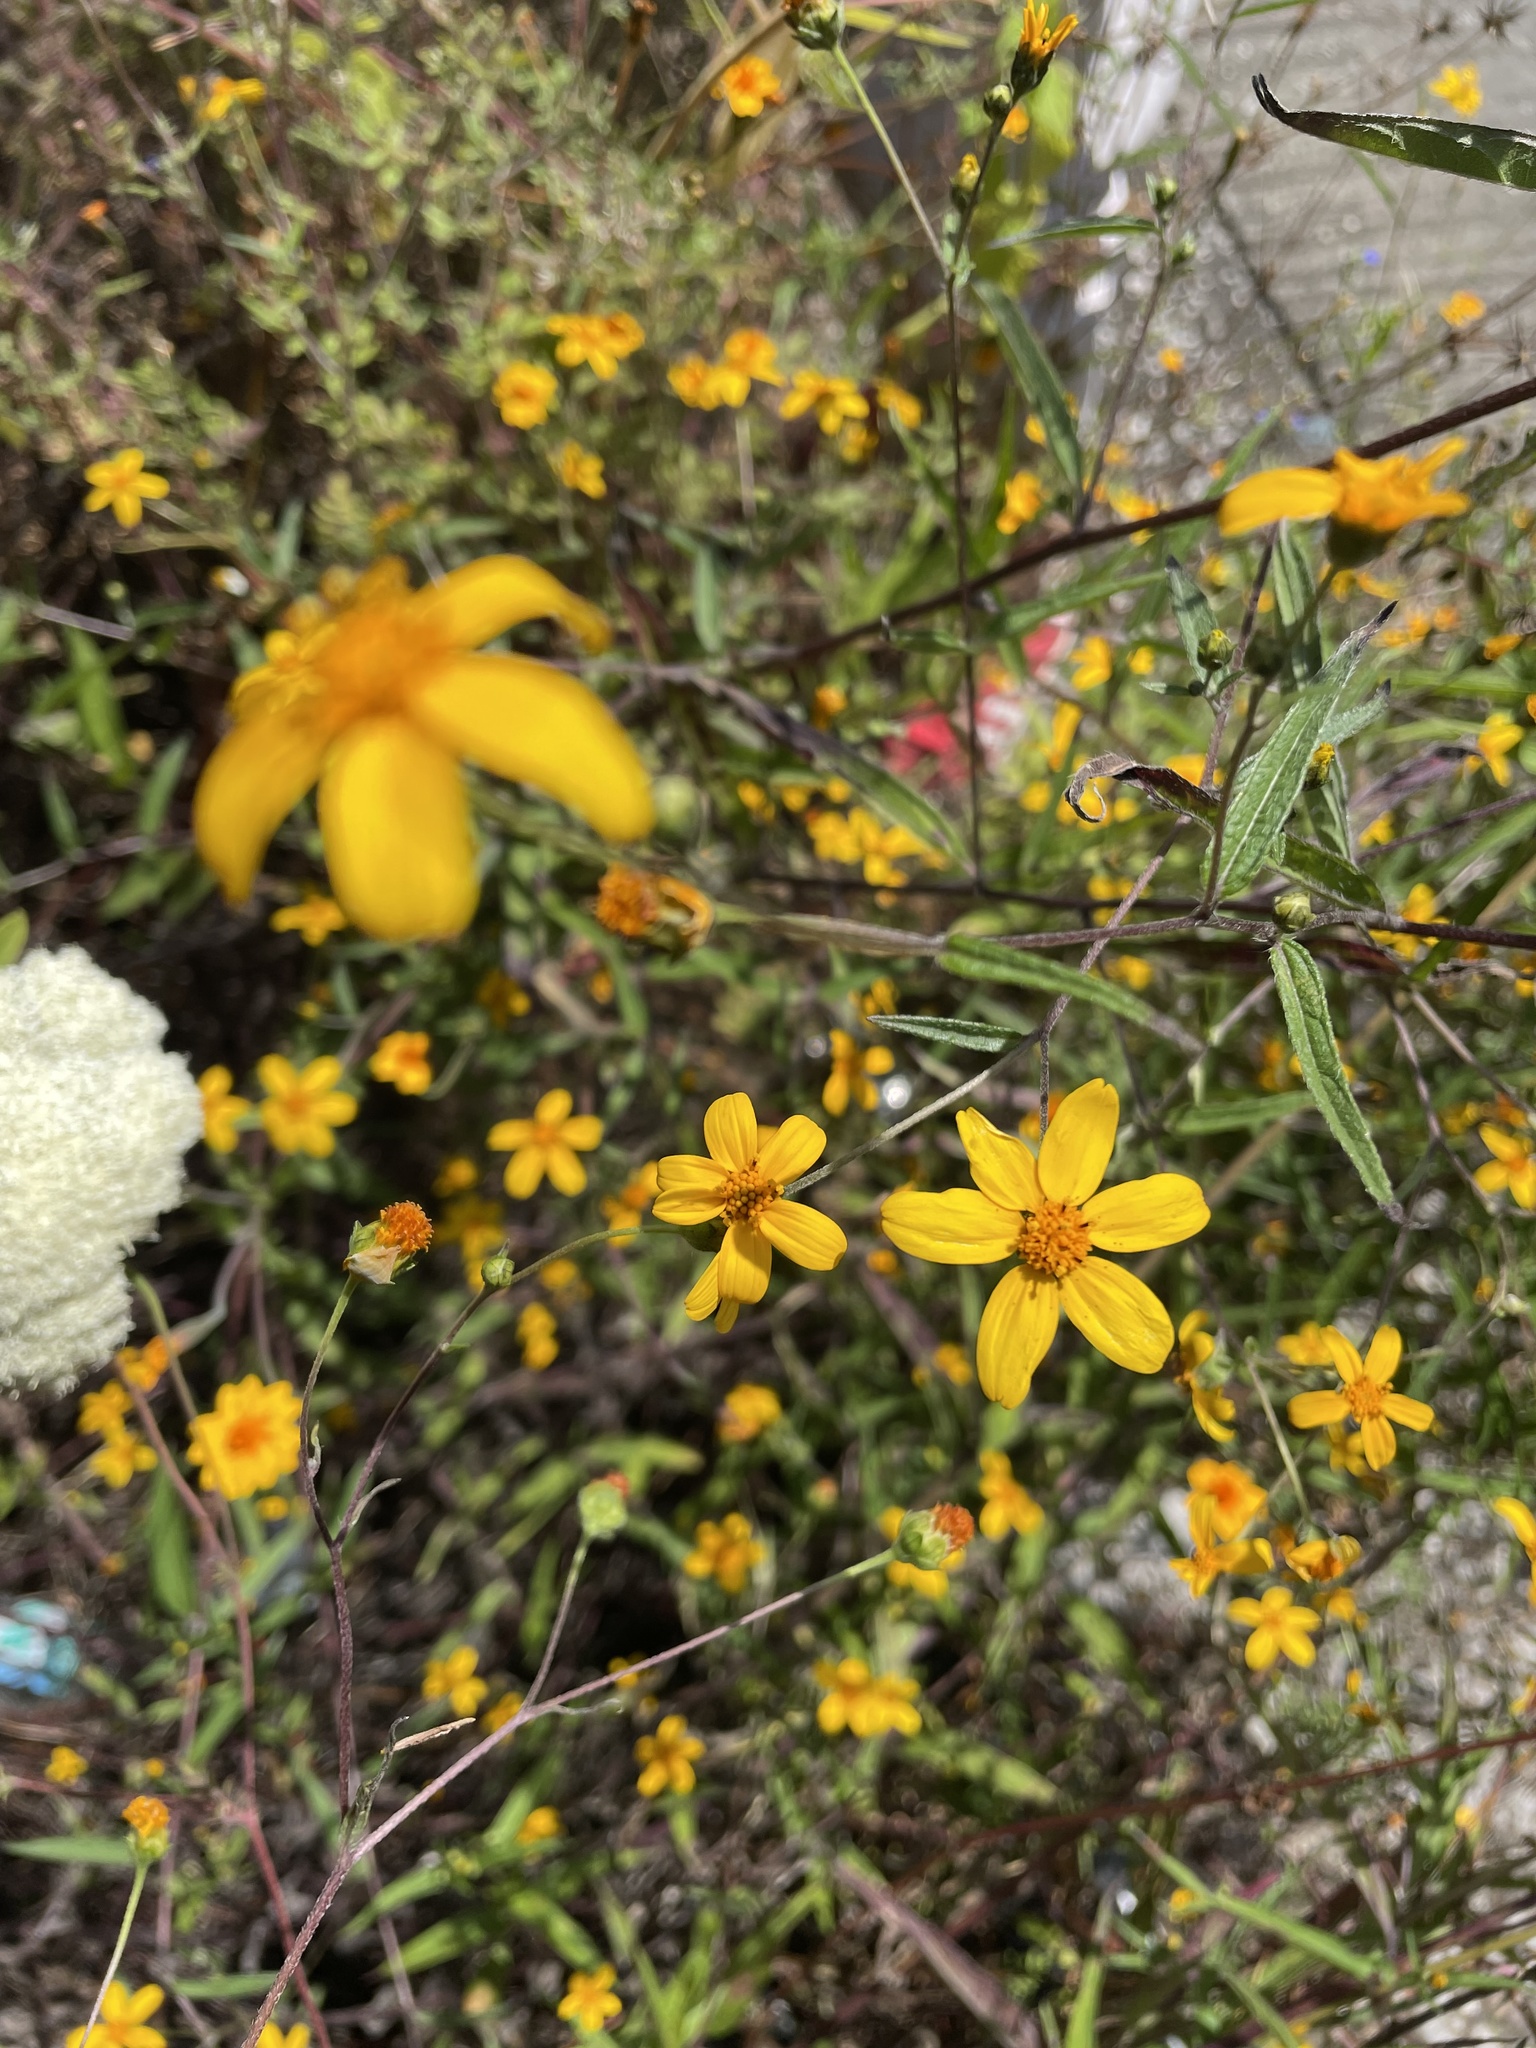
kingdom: Plantae
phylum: Tracheophyta
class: Magnoliopsida
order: Asterales
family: Asteraceae
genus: Aldama
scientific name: Aldama dentata
